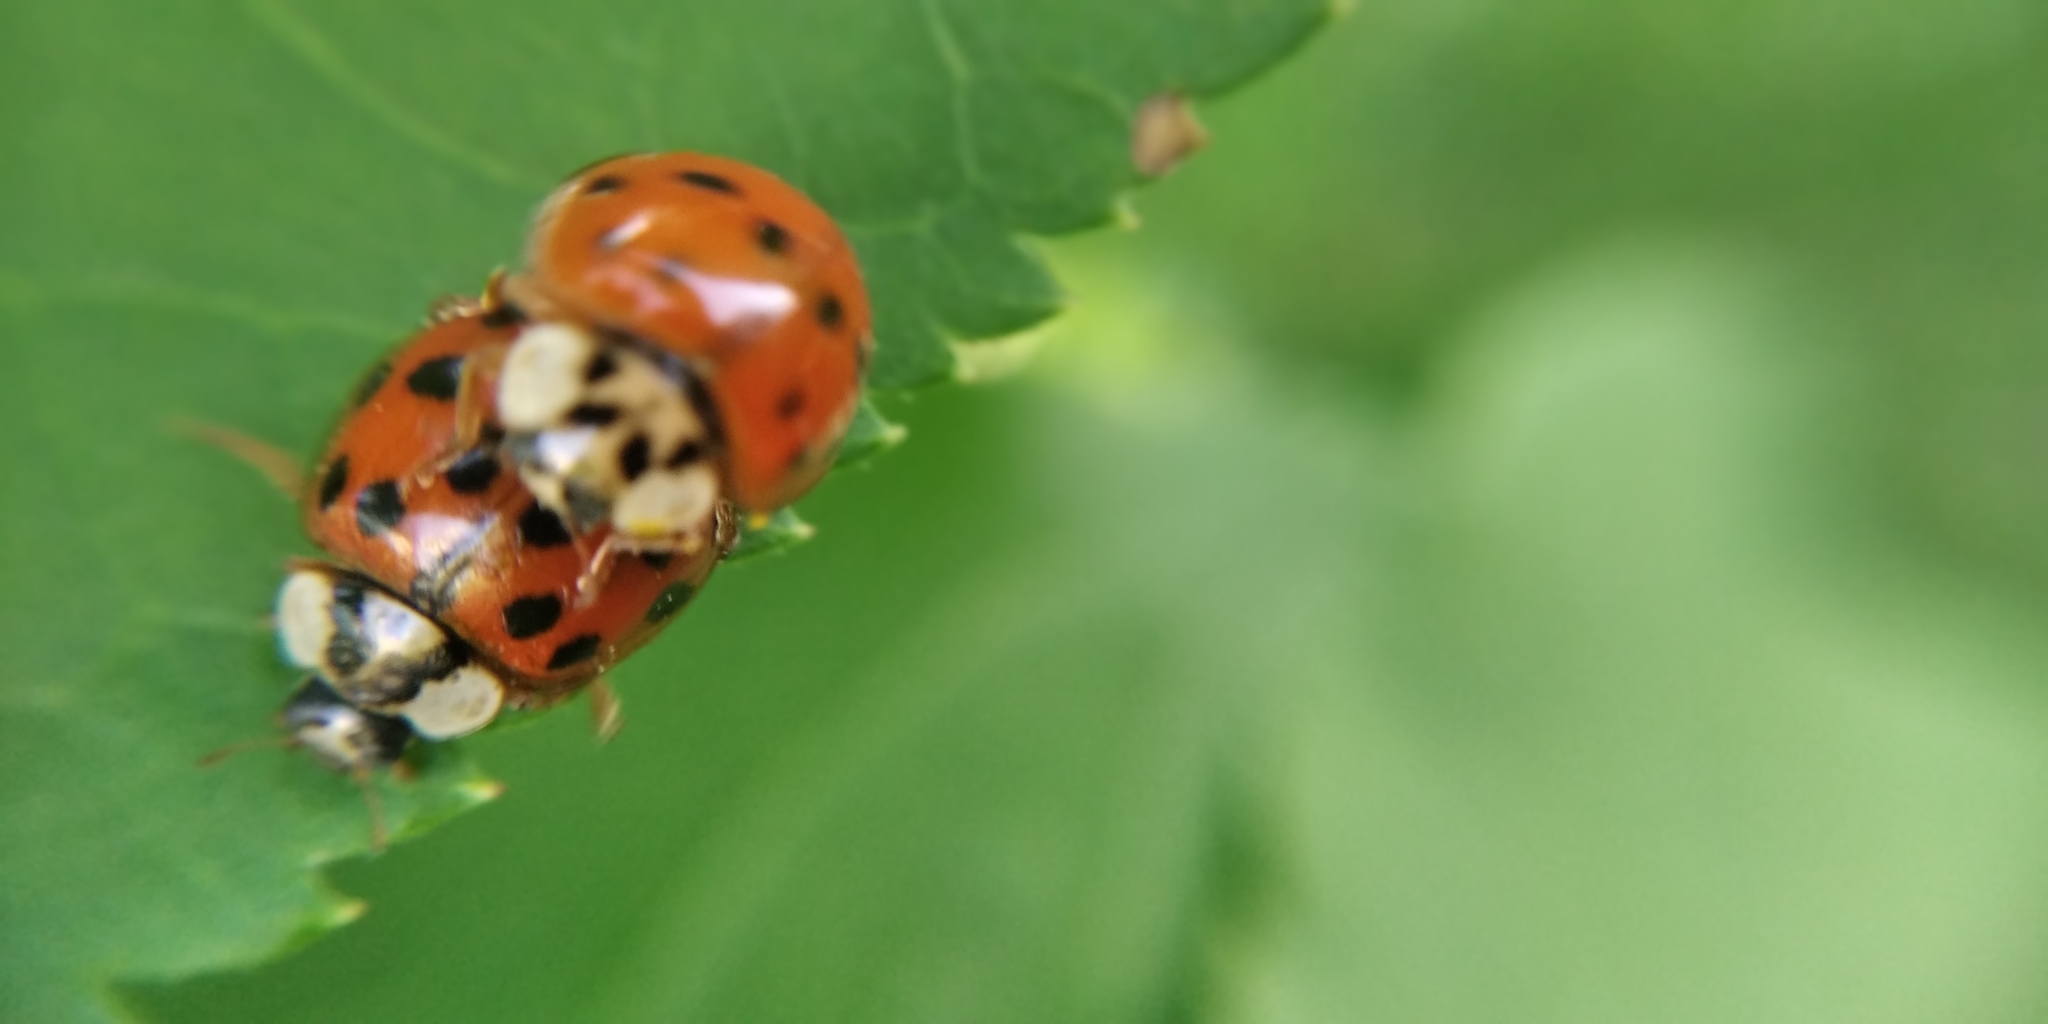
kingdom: Animalia
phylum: Arthropoda
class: Insecta
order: Coleoptera
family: Coccinellidae
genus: Harmonia
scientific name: Harmonia axyridis
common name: Harlequin ladybird
